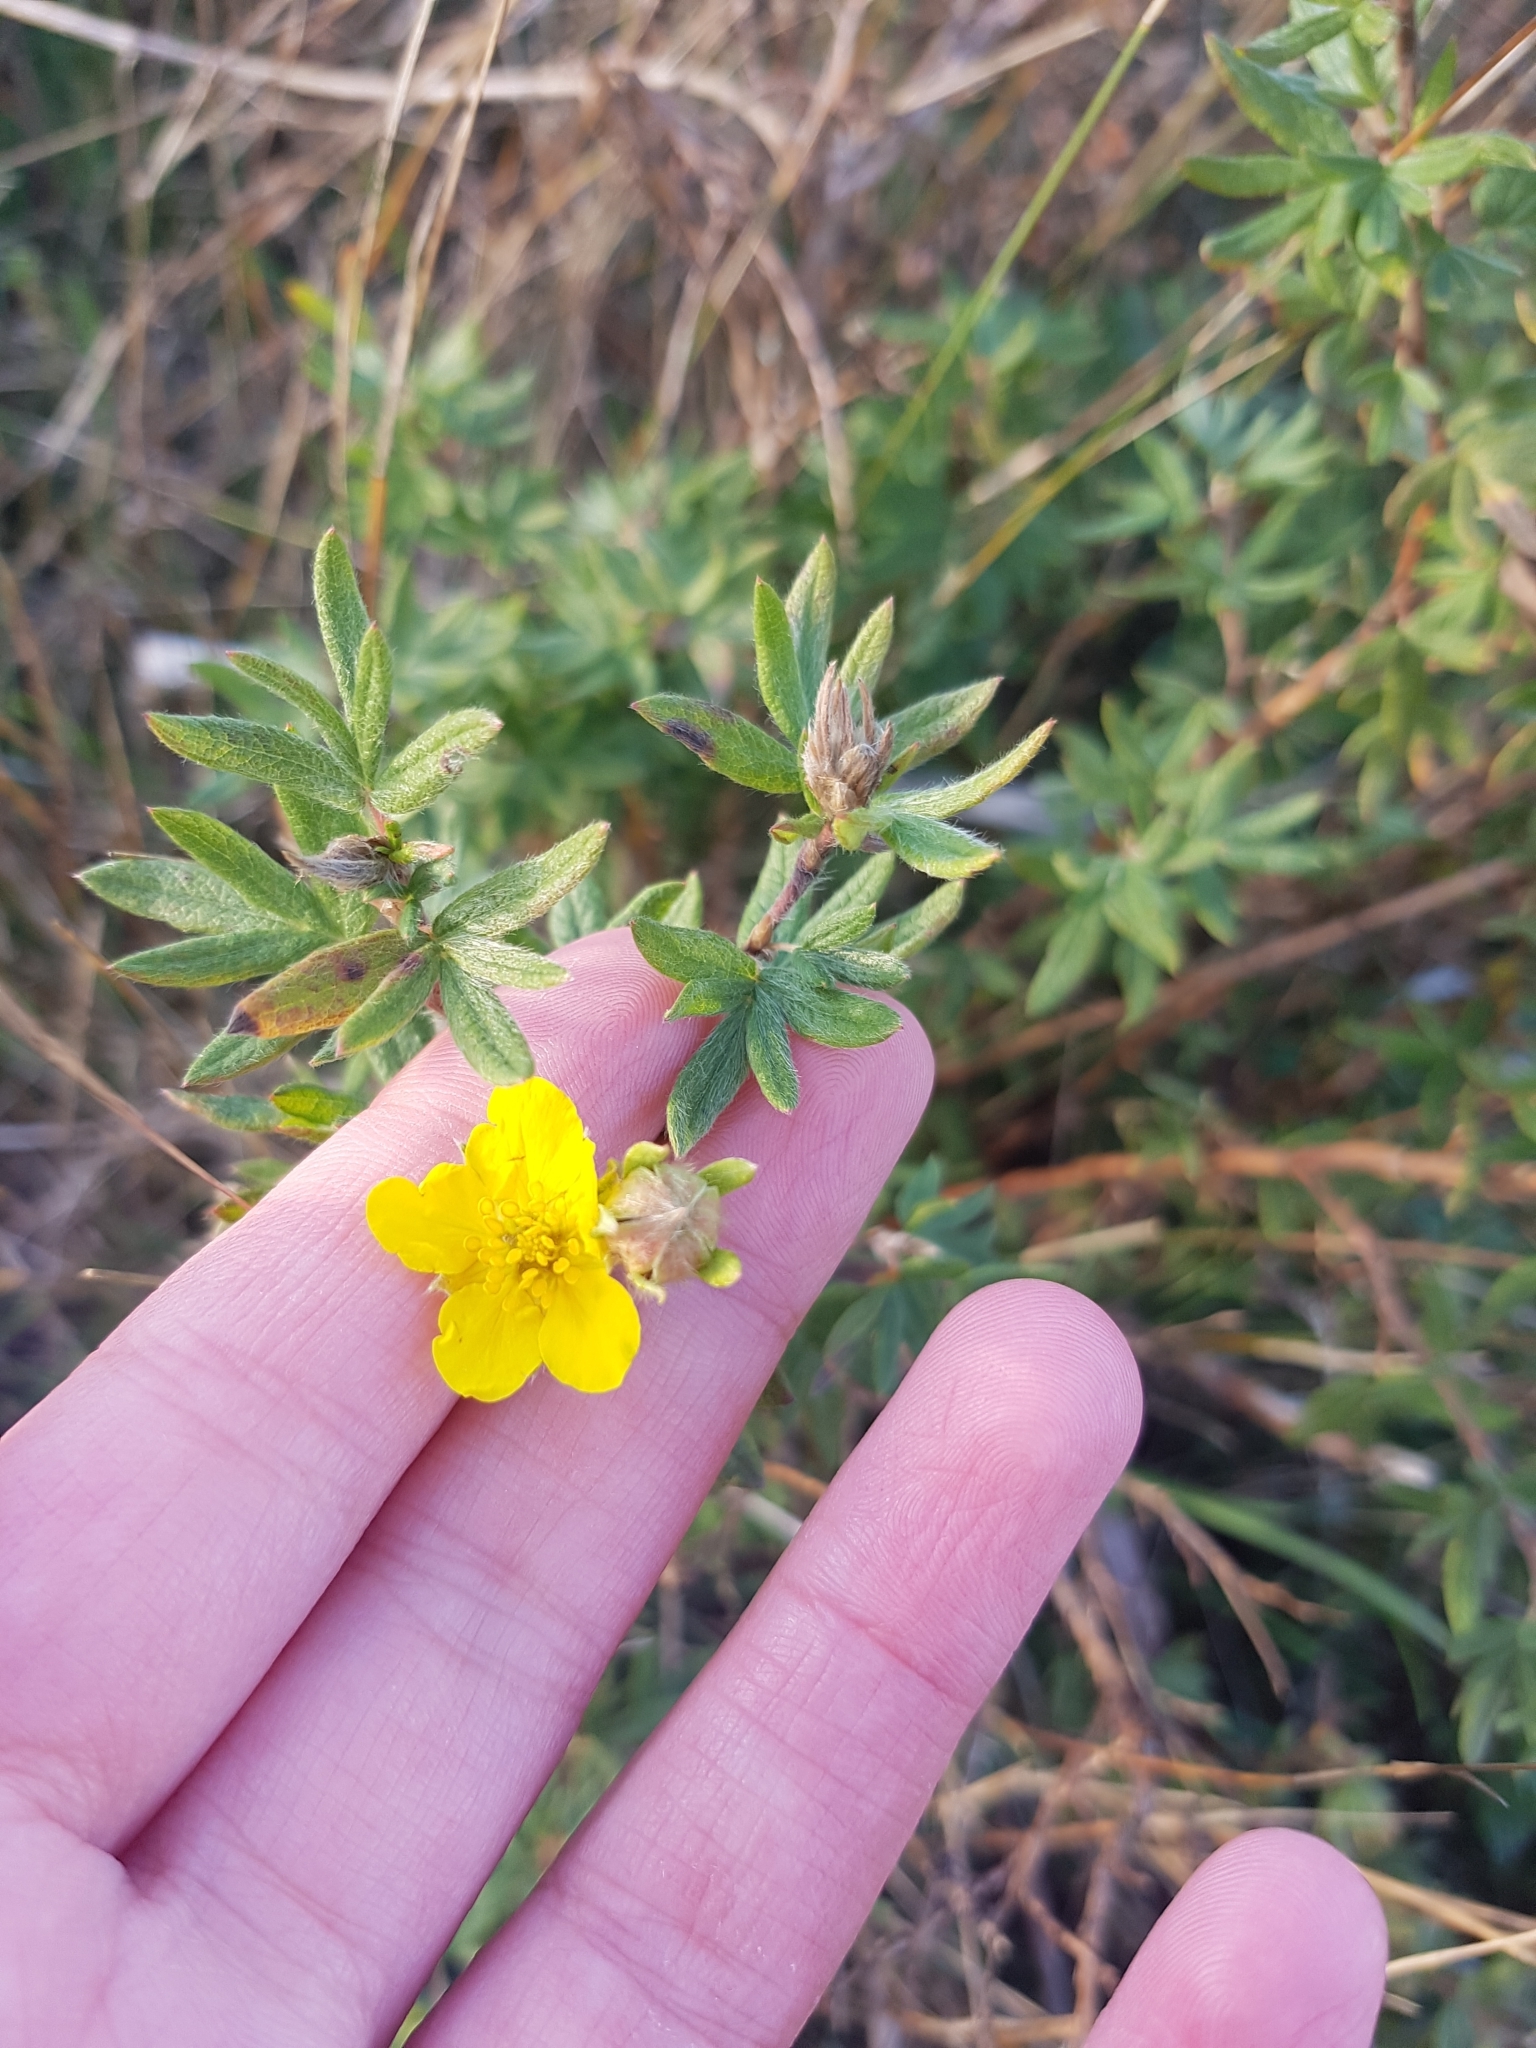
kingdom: Plantae
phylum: Tracheophyta
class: Magnoliopsida
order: Rosales
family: Rosaceae
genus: Dasiphora
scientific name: Dasiphora fruticosa
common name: Shrubby cinquefoil
